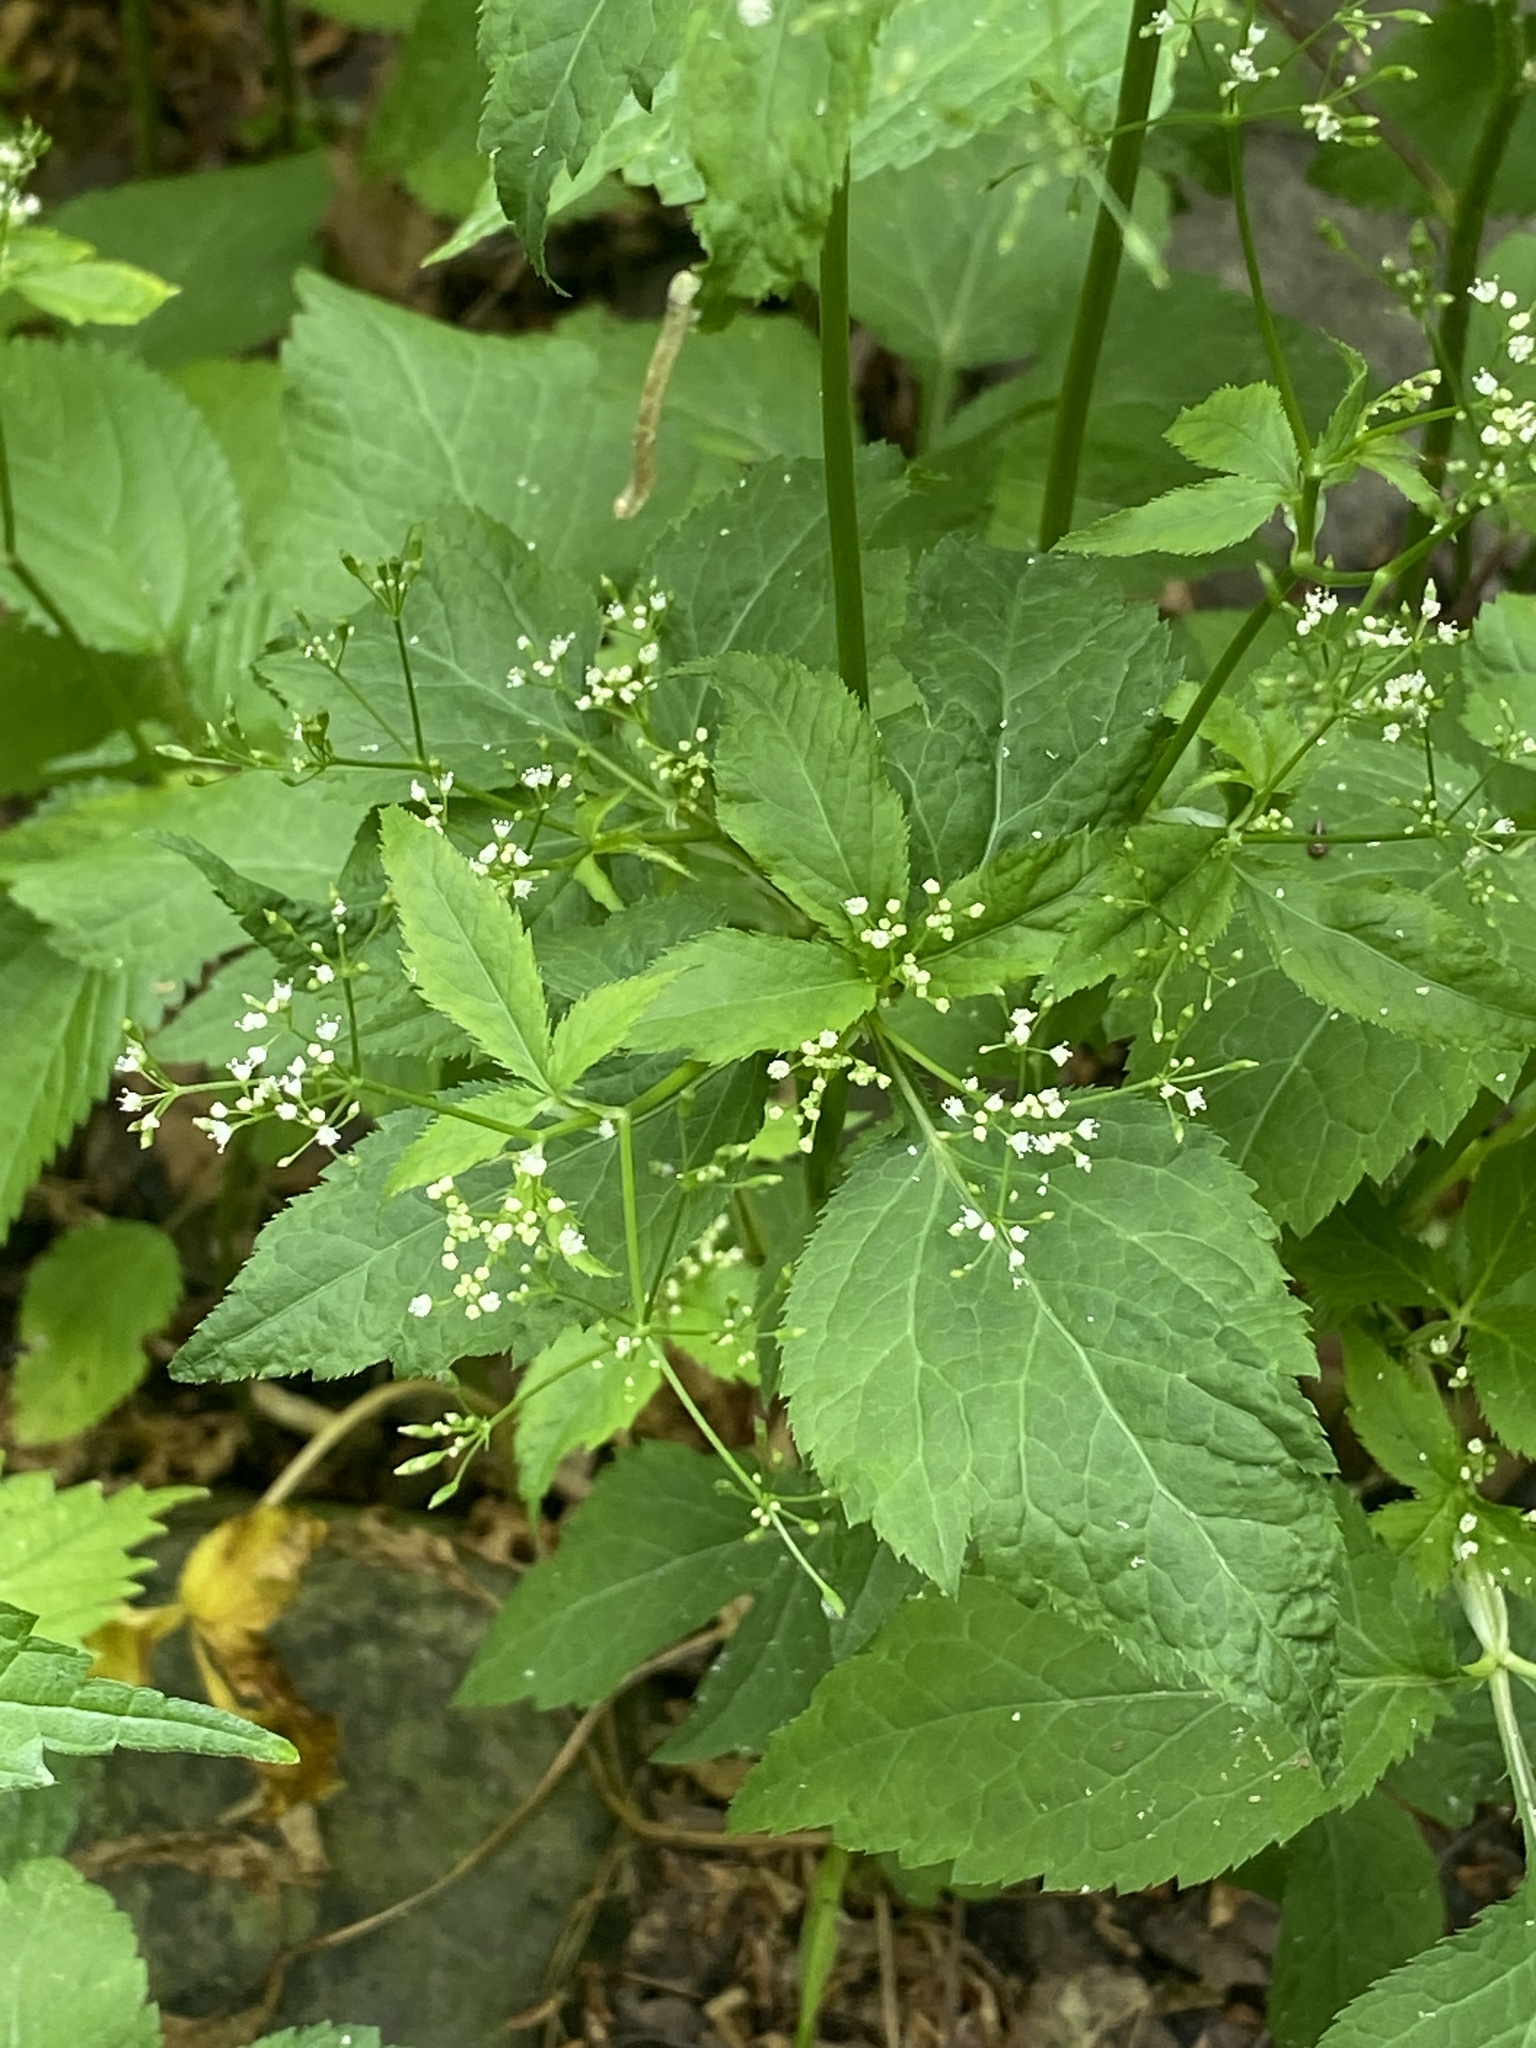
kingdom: Plantae
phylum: Tracheophyta
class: Magnoliopsida
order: Apiales
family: Apiaceae
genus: Cryptotaenia
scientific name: Cryptotaenia canadensis
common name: Honewort
